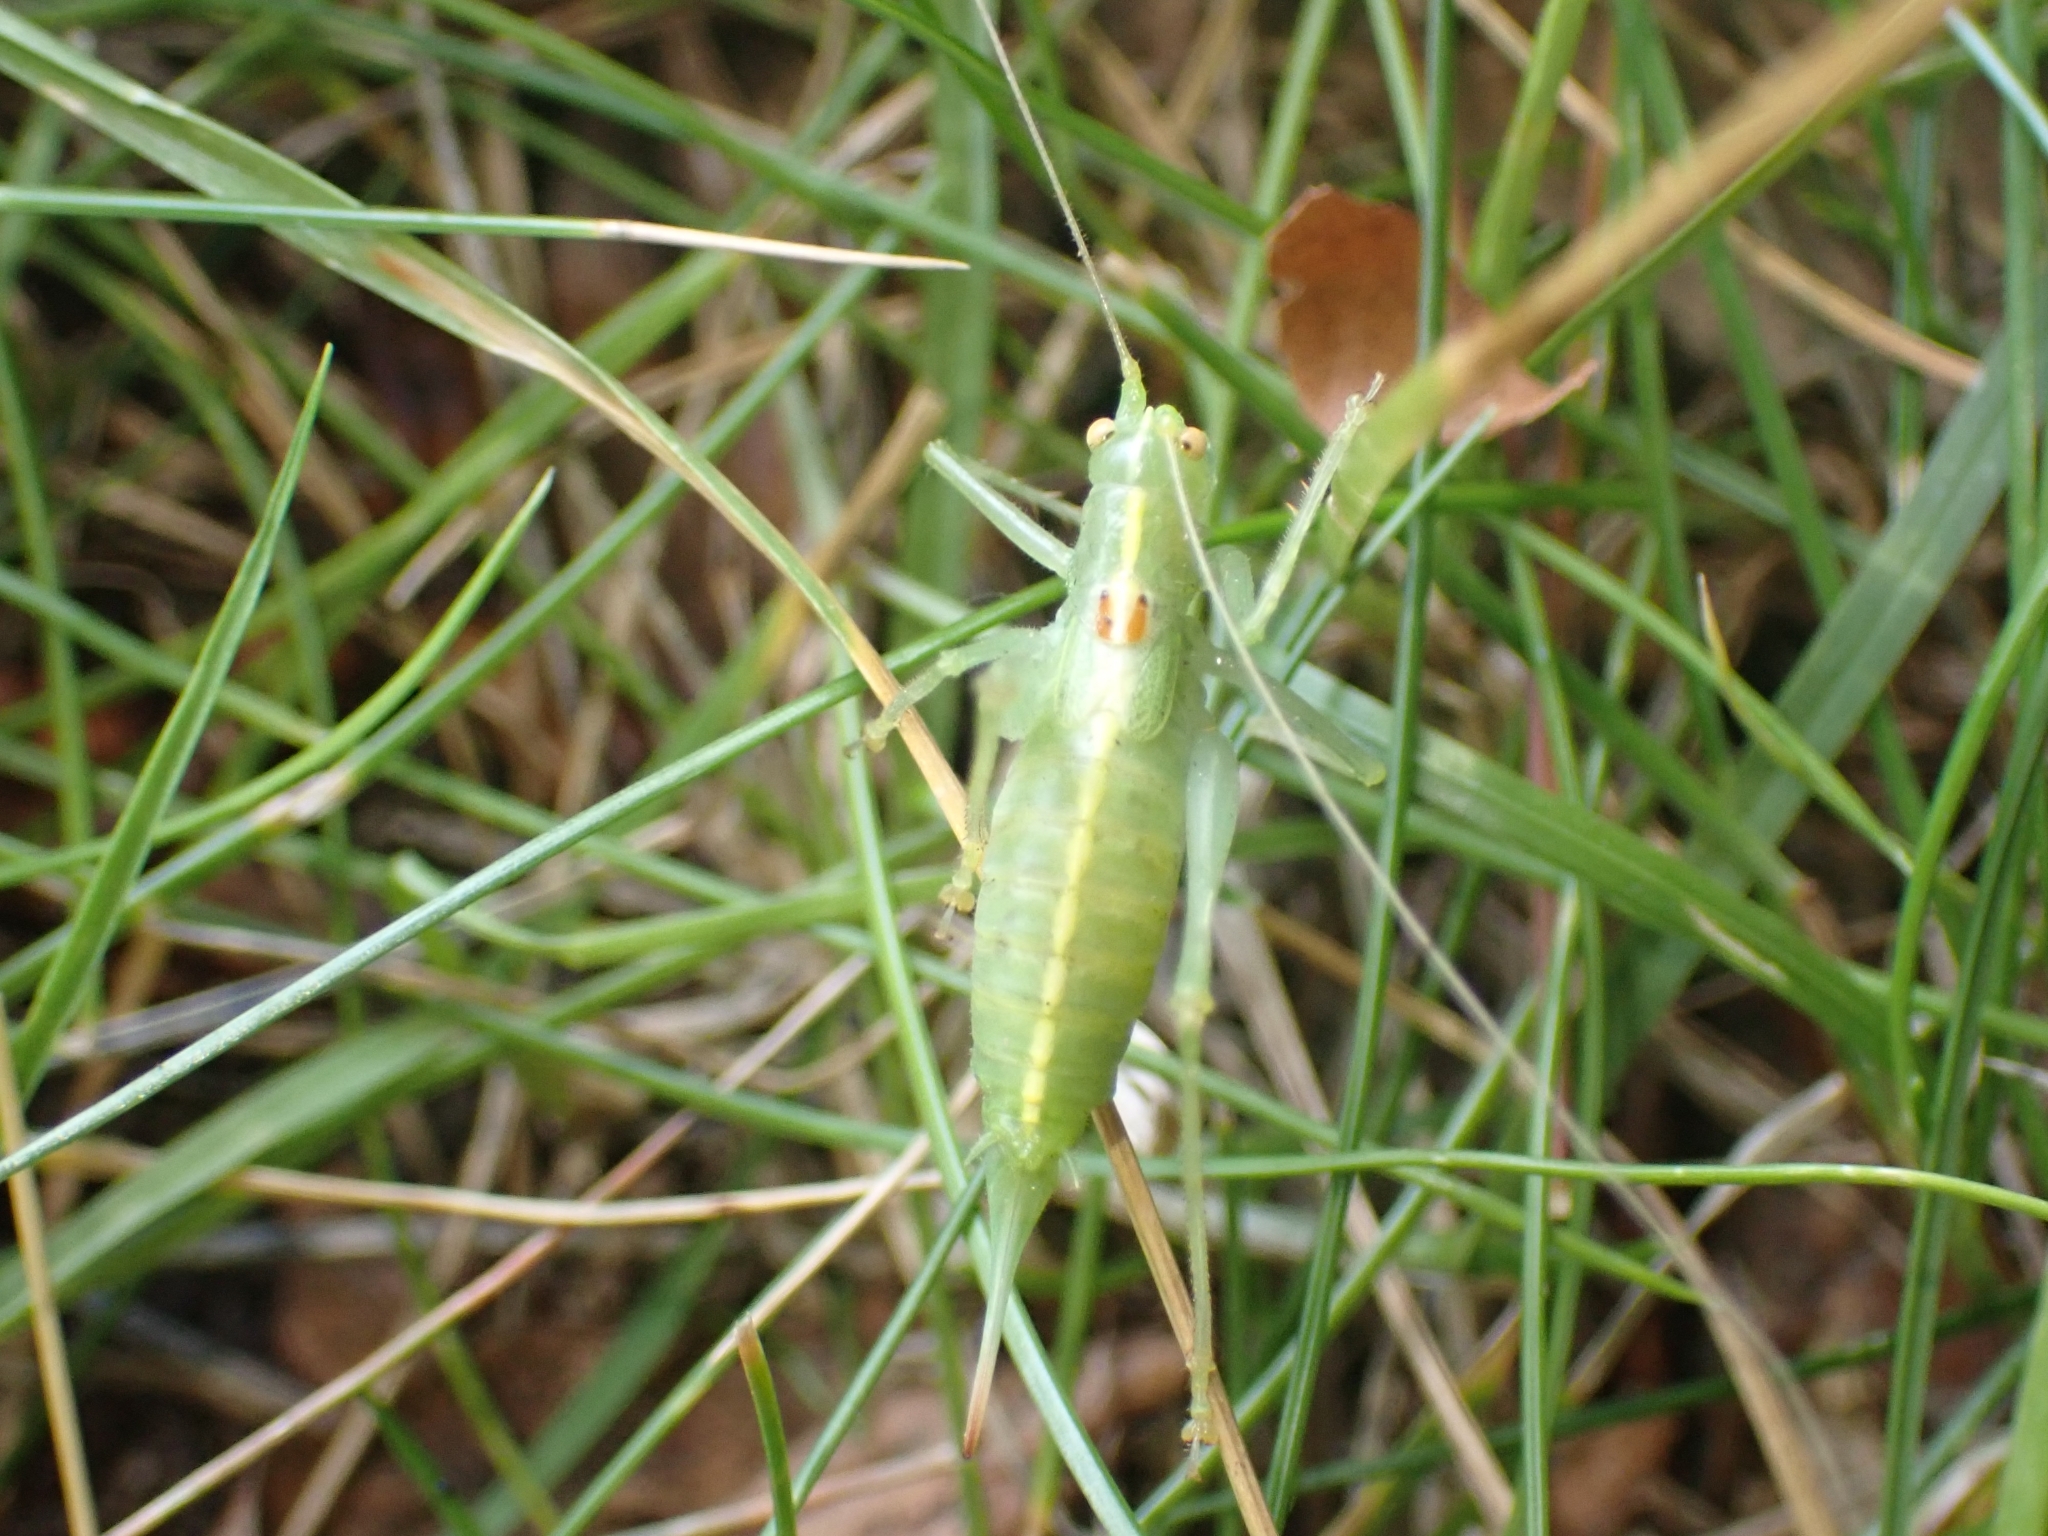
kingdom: Animalia
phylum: Arthropoda
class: Insecta
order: Orthoptera
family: Tettigoniidae
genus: Meconema
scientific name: Meconema meridionale
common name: Southern oak bush-cricket
